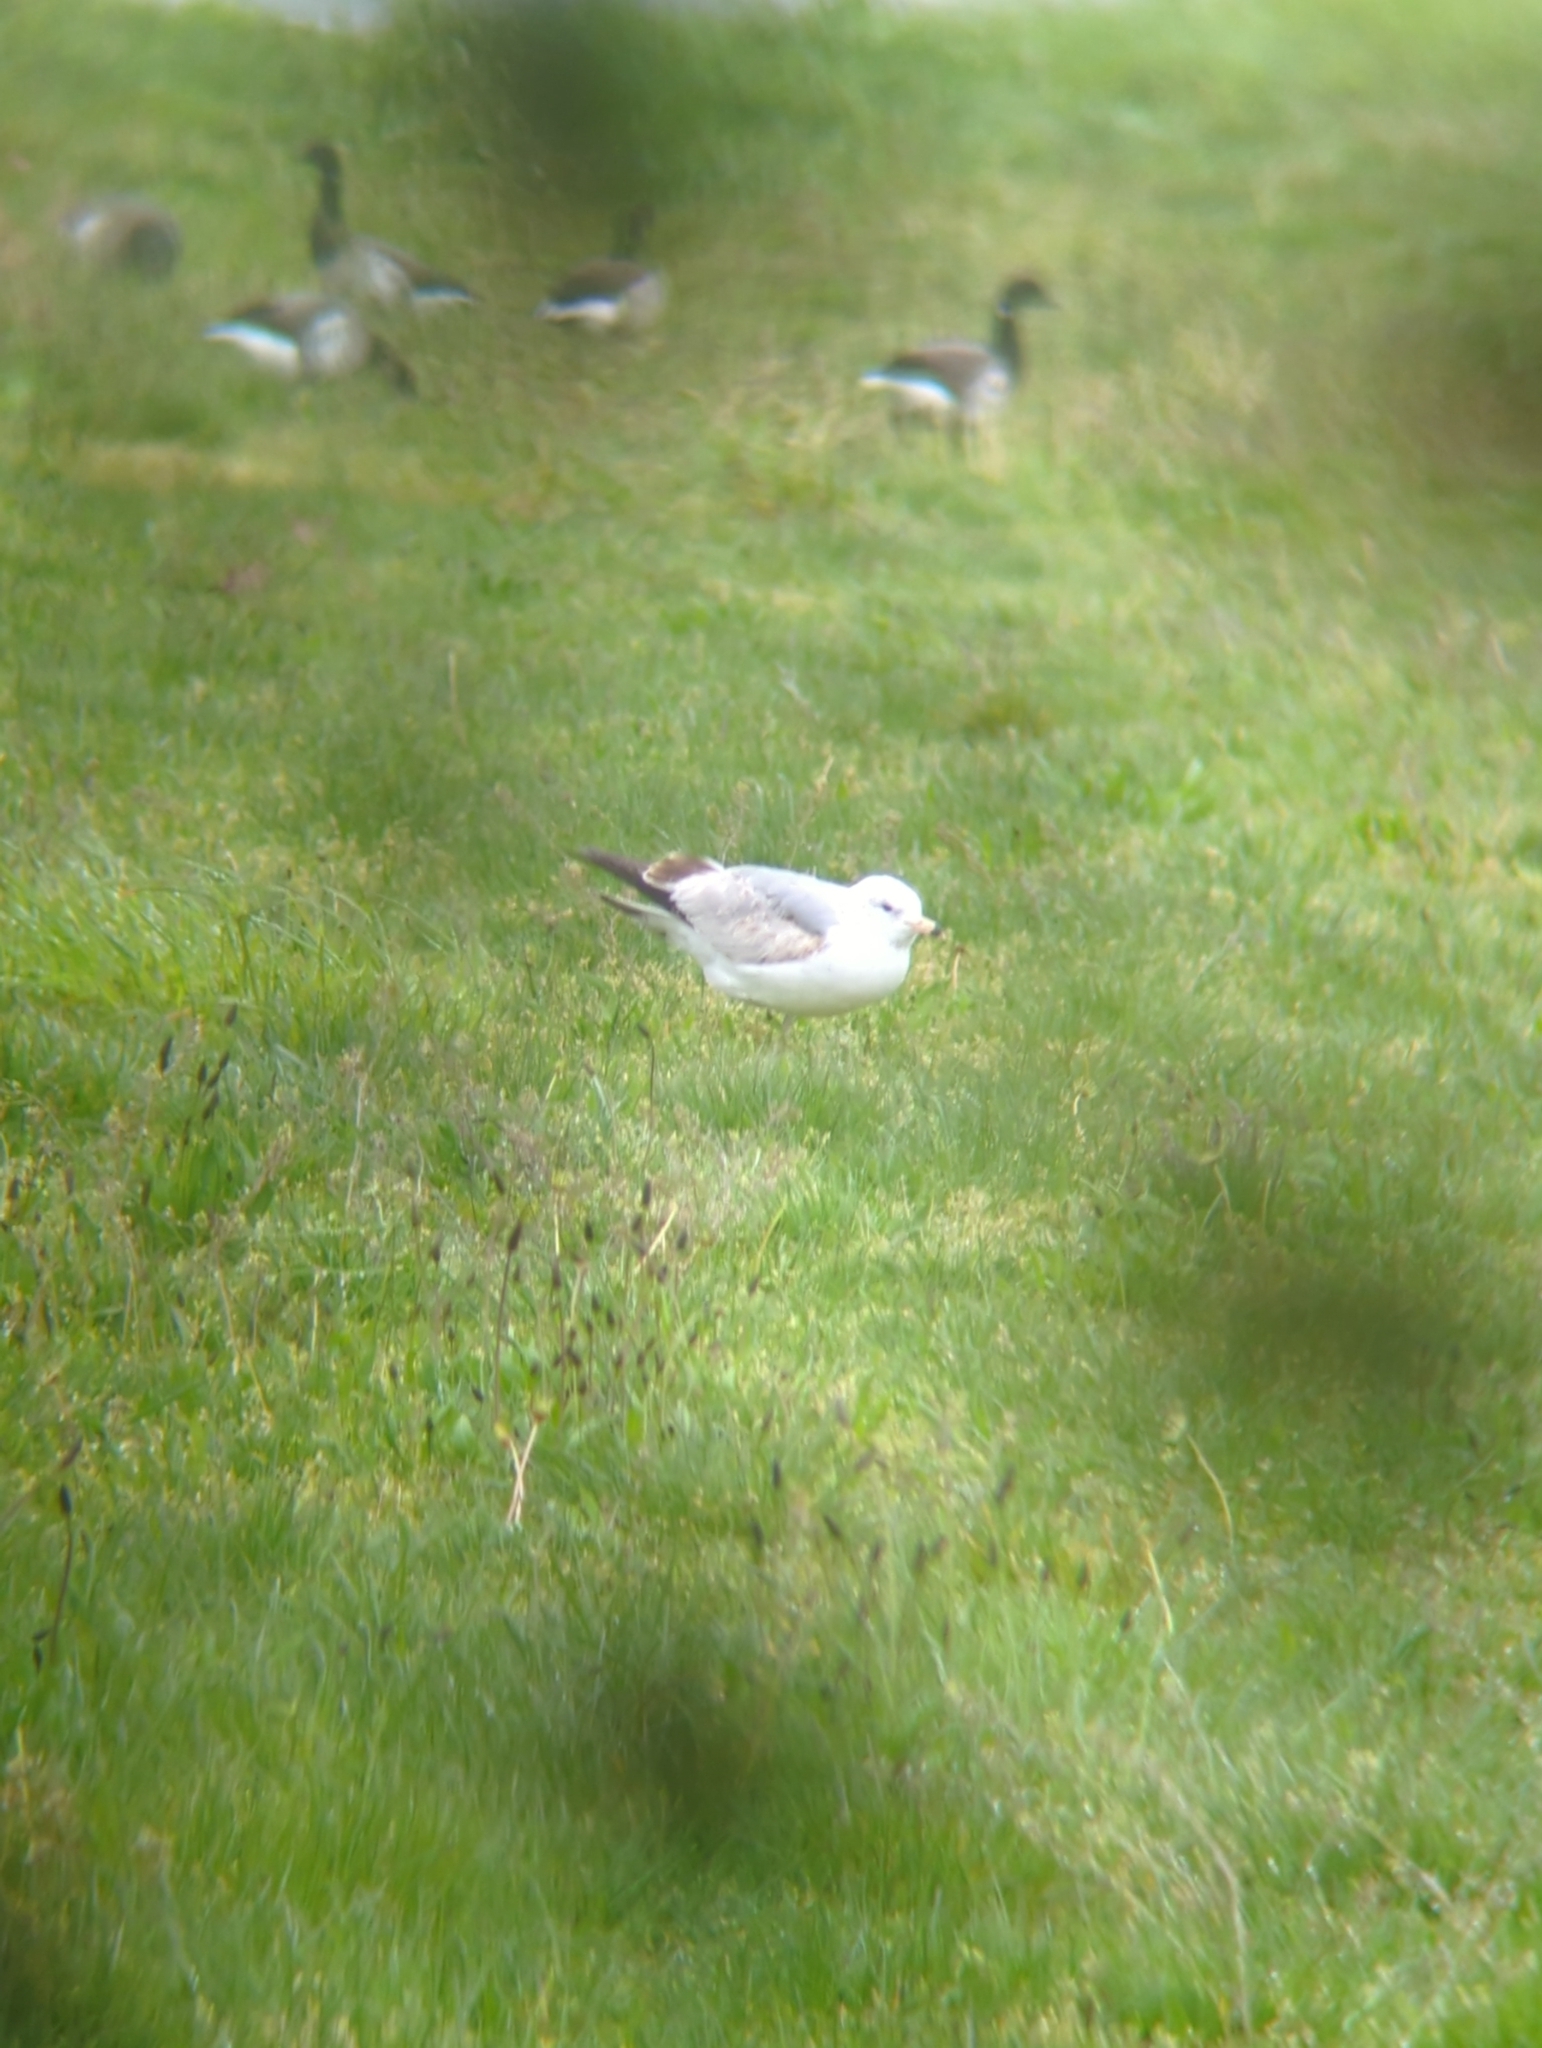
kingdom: Animalia
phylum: Chordata
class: Aves
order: Charadriiformes
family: Laridae
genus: Larus
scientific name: Larus delawarensis
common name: Ring-billed gull
